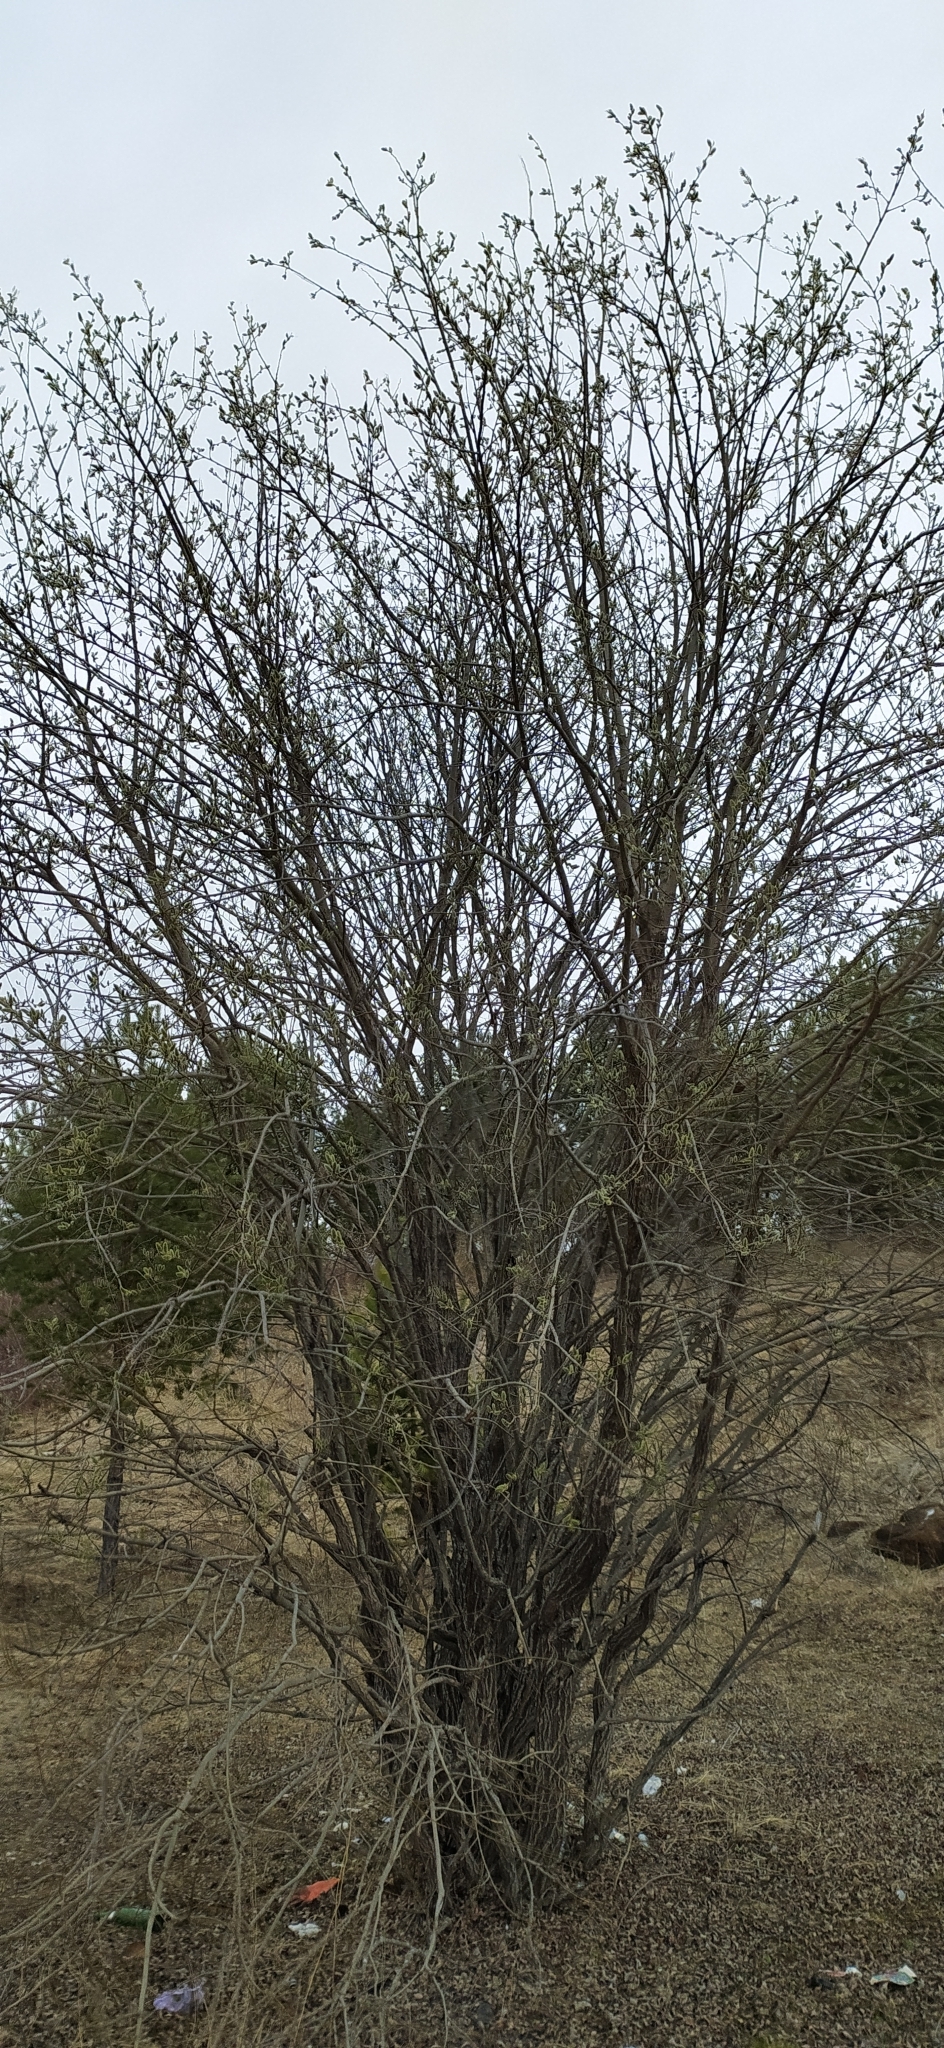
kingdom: Plantae
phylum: Tracheophyta
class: Magnoliopsida
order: Malpighiales
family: Salicaceae
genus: Salix
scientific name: Salix caprea
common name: Goat willow
